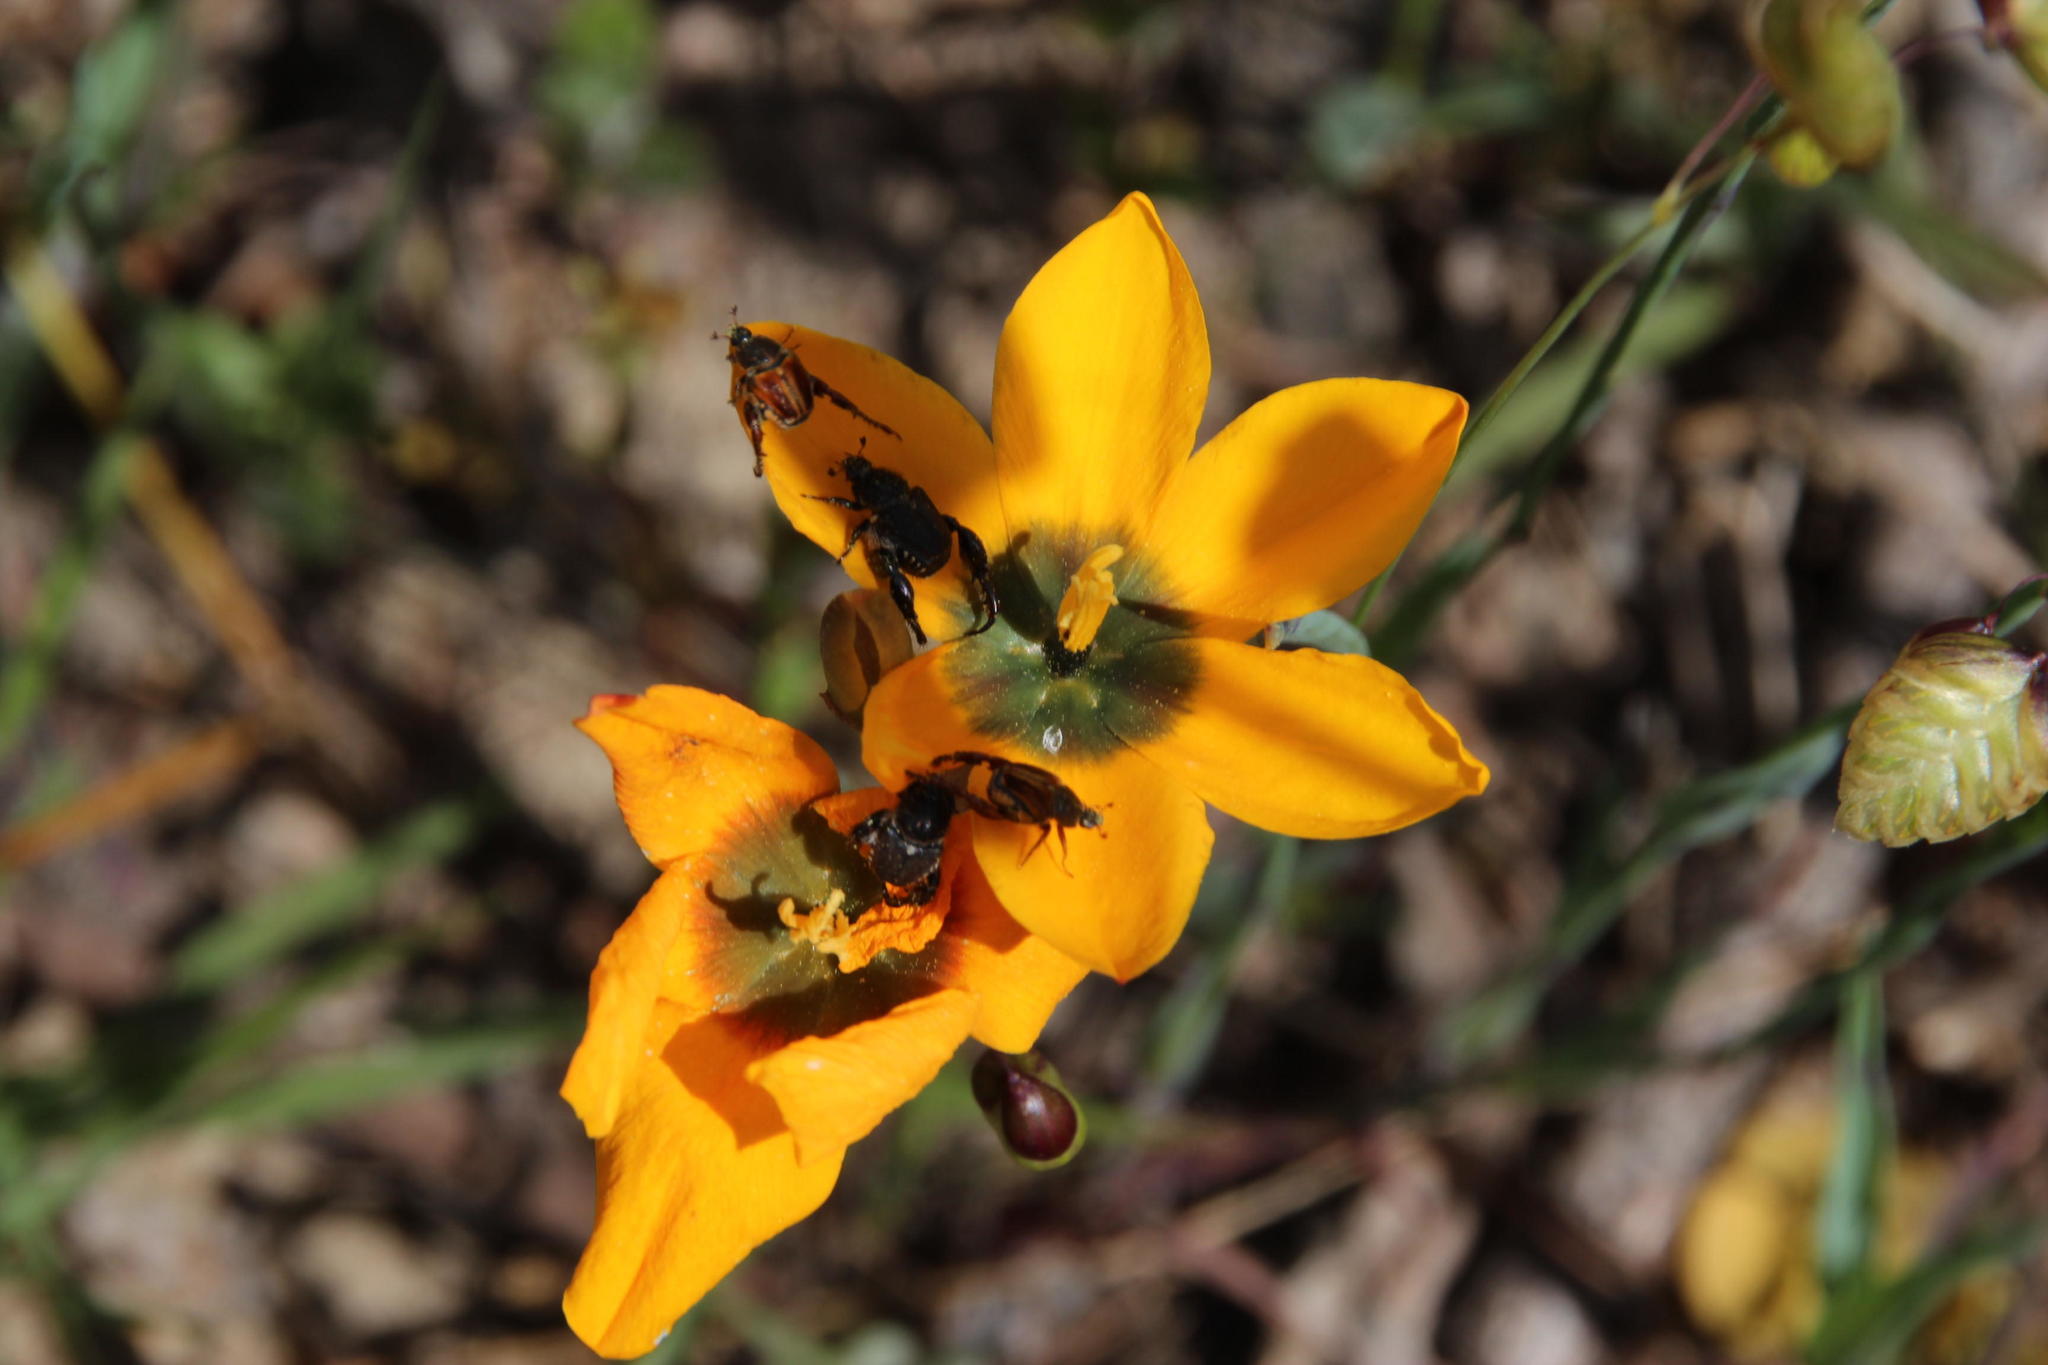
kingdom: Plantae
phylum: Tracheophyta
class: Liliopsida
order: Asparagales
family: Iridaceae
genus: Ixia
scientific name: Ixia curta
